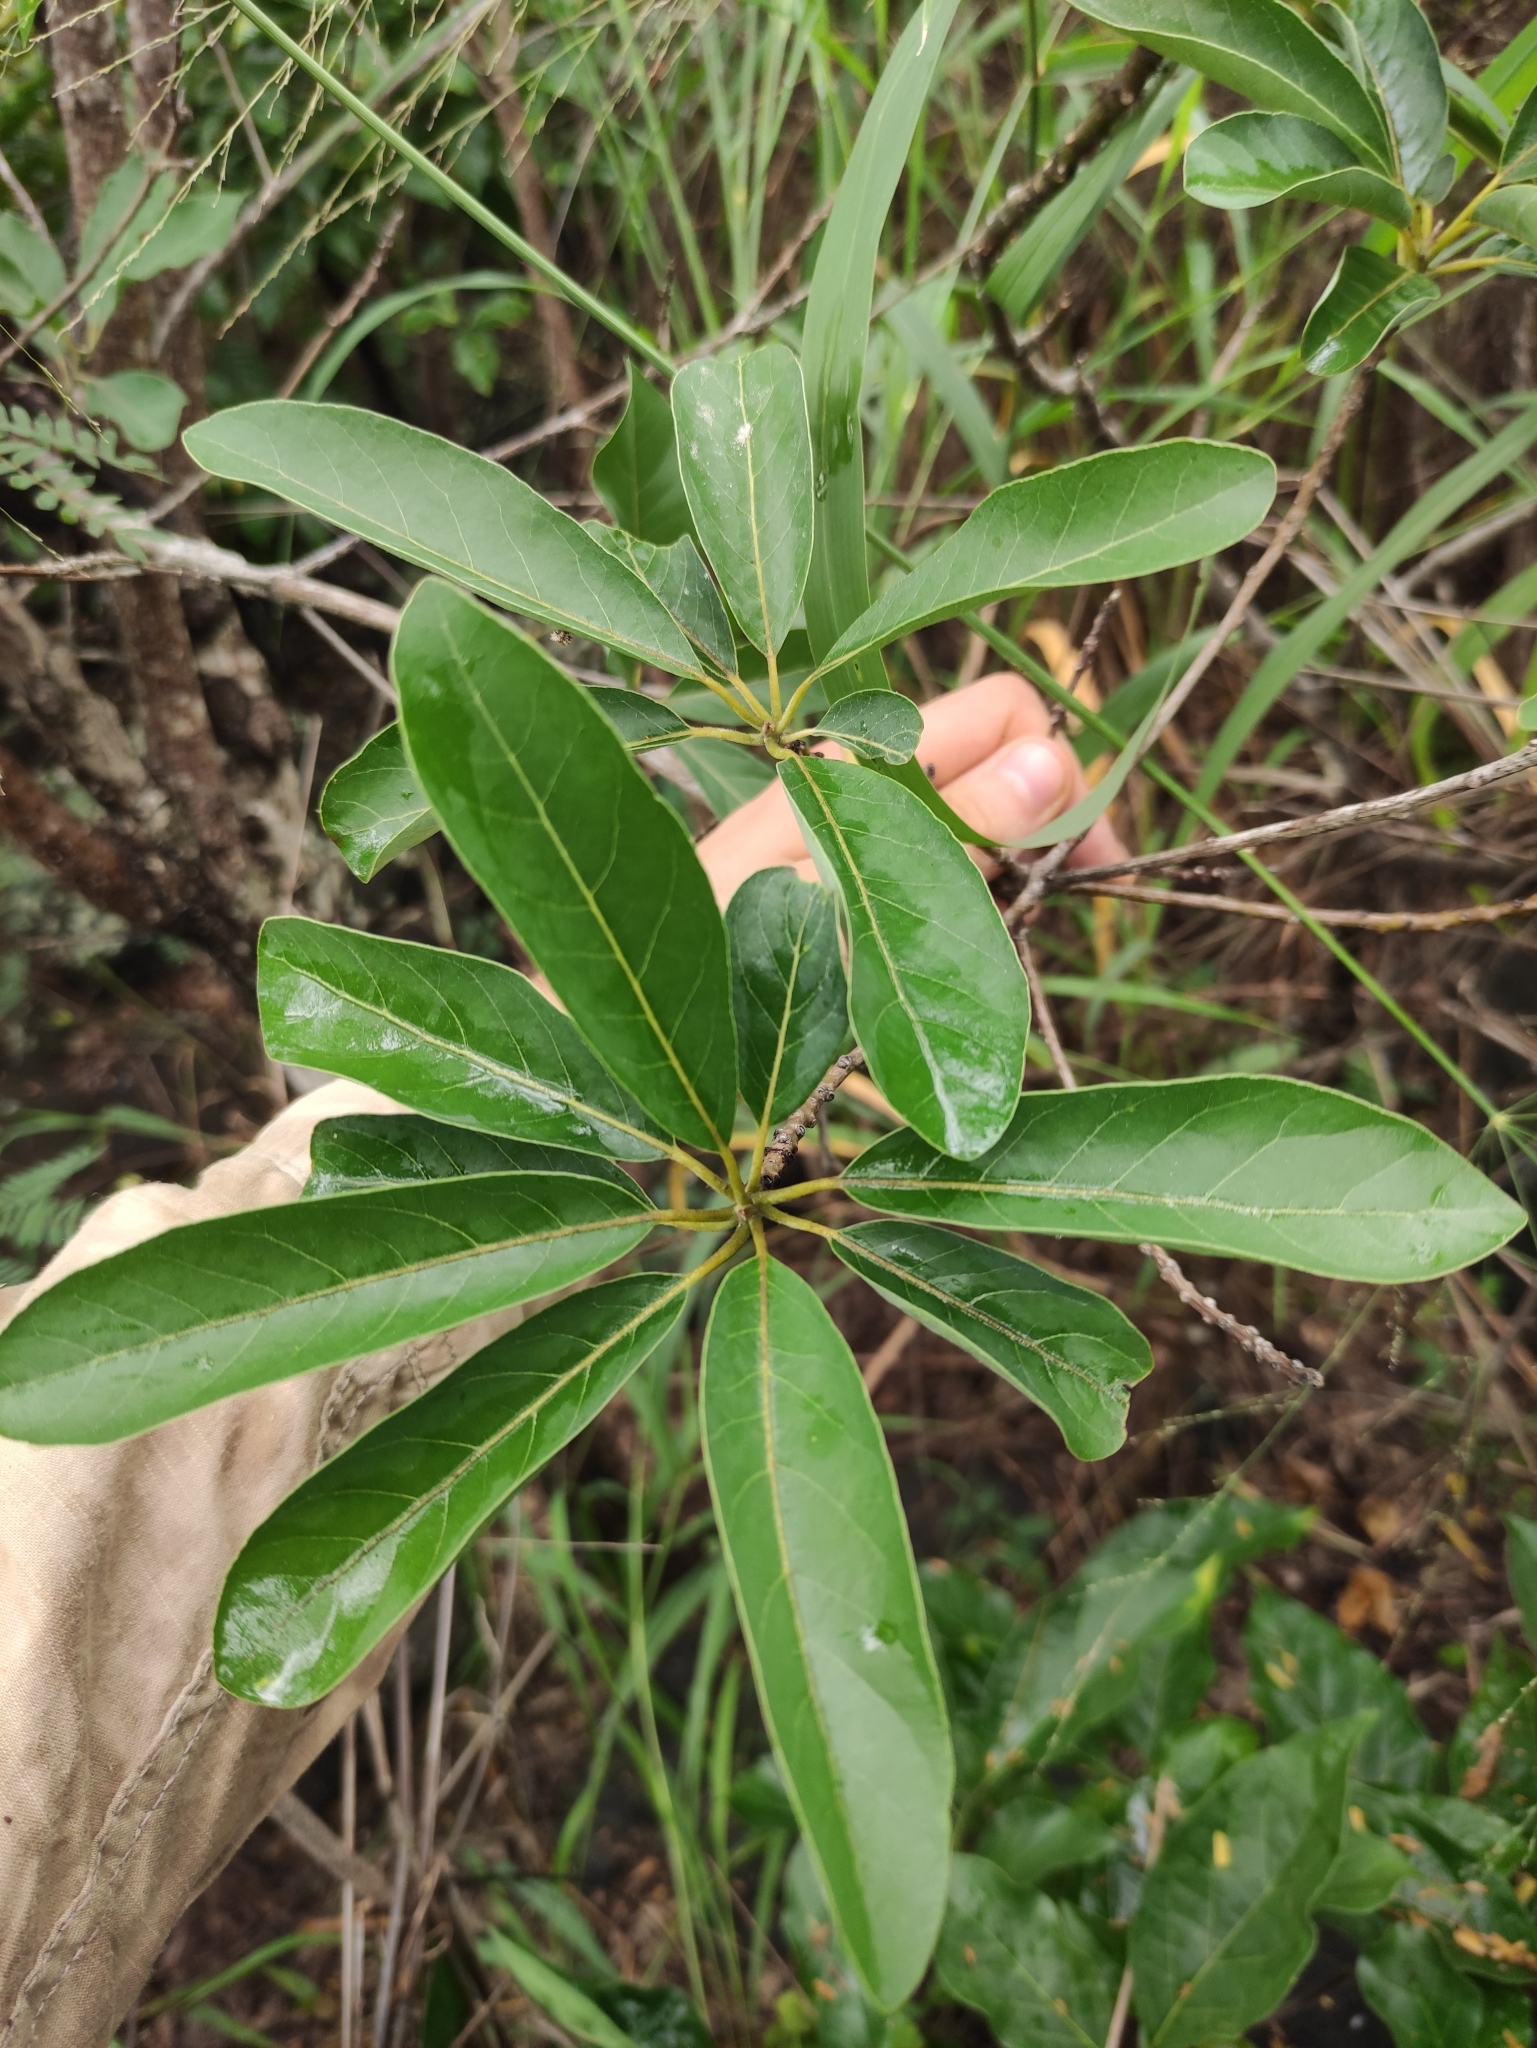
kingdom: Plantae
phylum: Tracheophyta
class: Magnoliopsida
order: Laurales
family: Lauraceae
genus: Litsea
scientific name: Litsea glutinosa
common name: Indian-laurel
